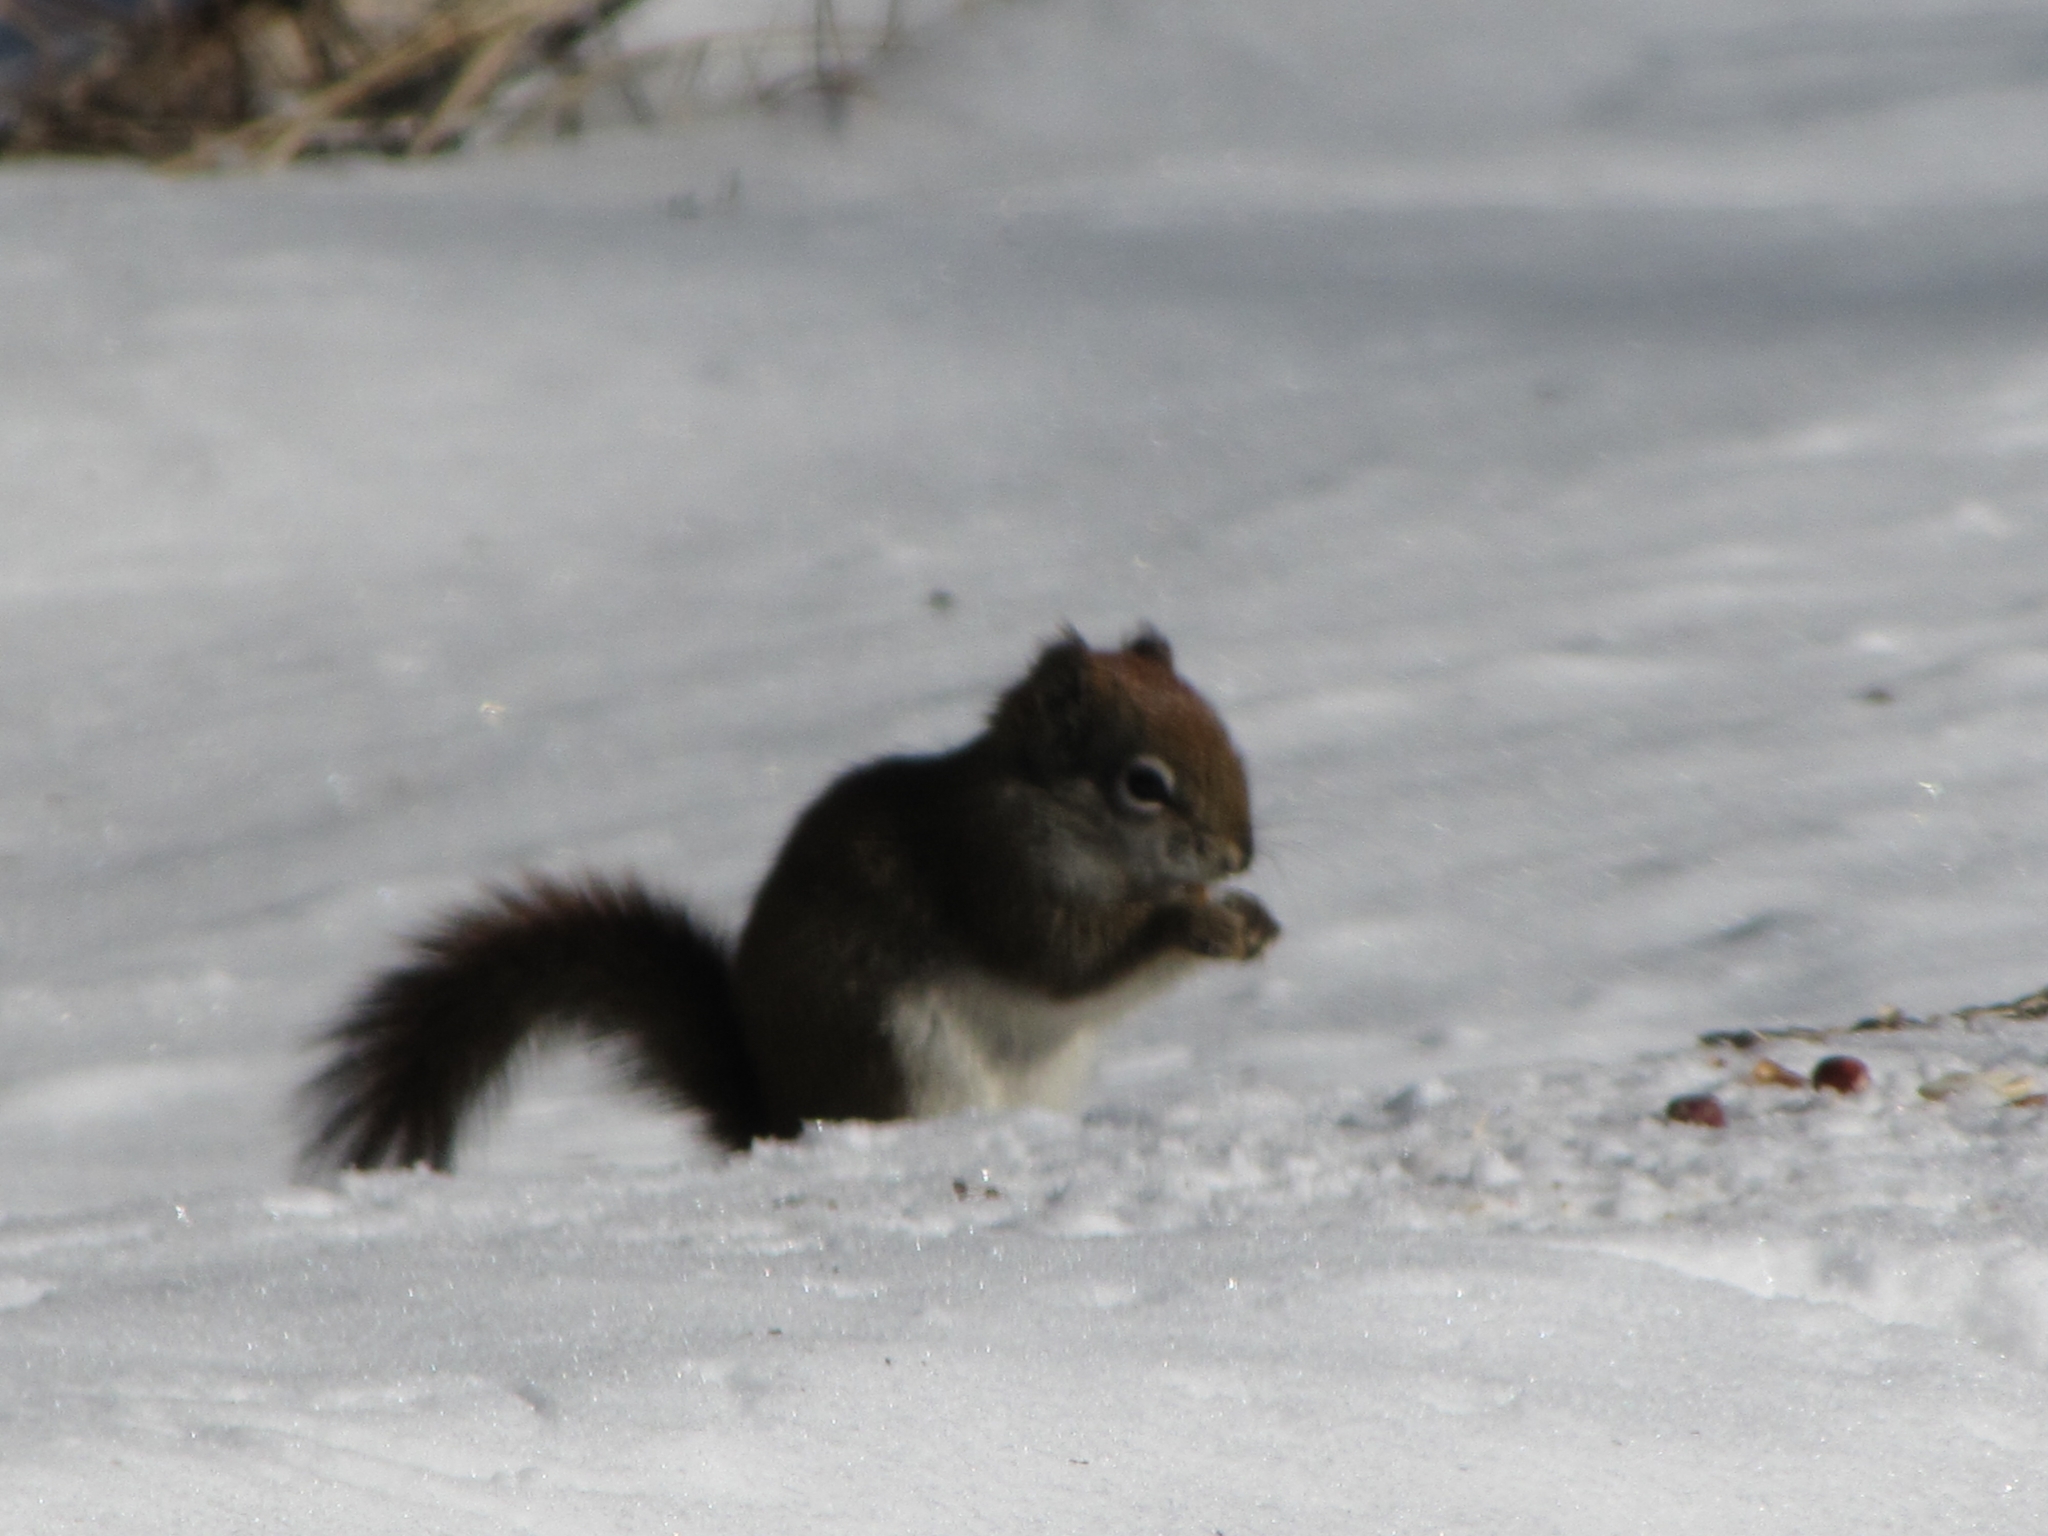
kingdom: Animalia
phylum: Chordata
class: Mammalia
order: Rodentia
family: Sciuridae
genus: Tamiasciurus
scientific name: Tamiasciurus hudsonicus
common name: Red squirrel
